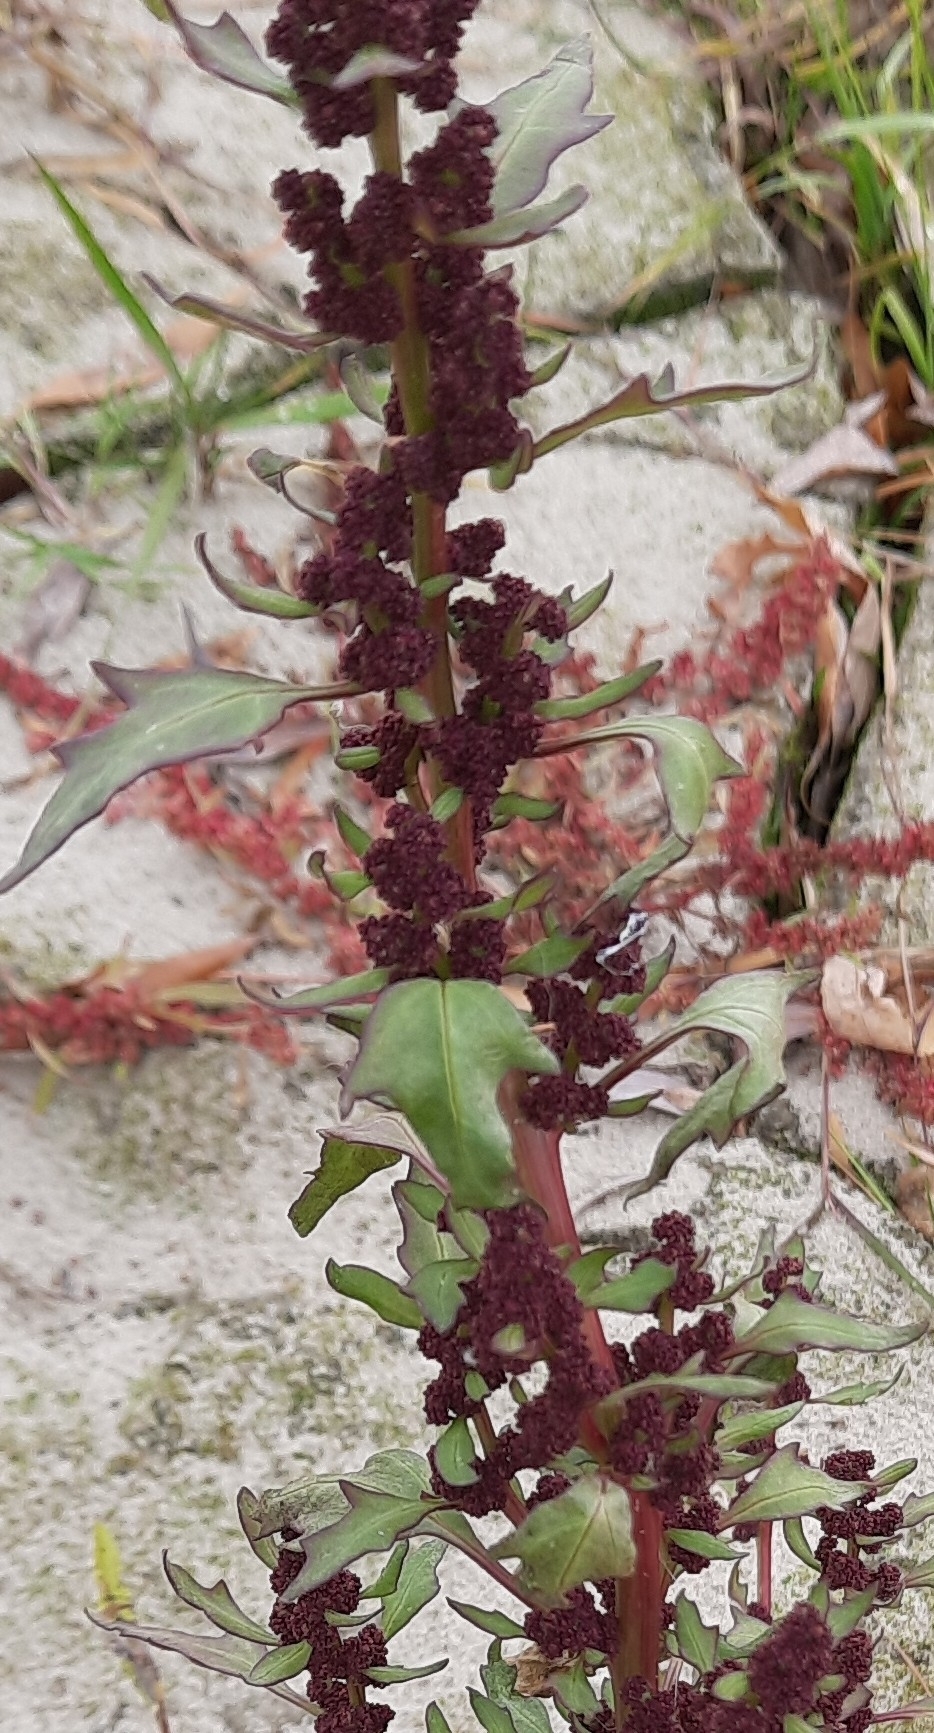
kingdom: Plantae
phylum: Tracheophyta
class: Magnoliopsida
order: Caryophyllales
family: Amaranthaceae
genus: Oxybasis
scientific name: Oxybasis rubra
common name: Red goosefoot
